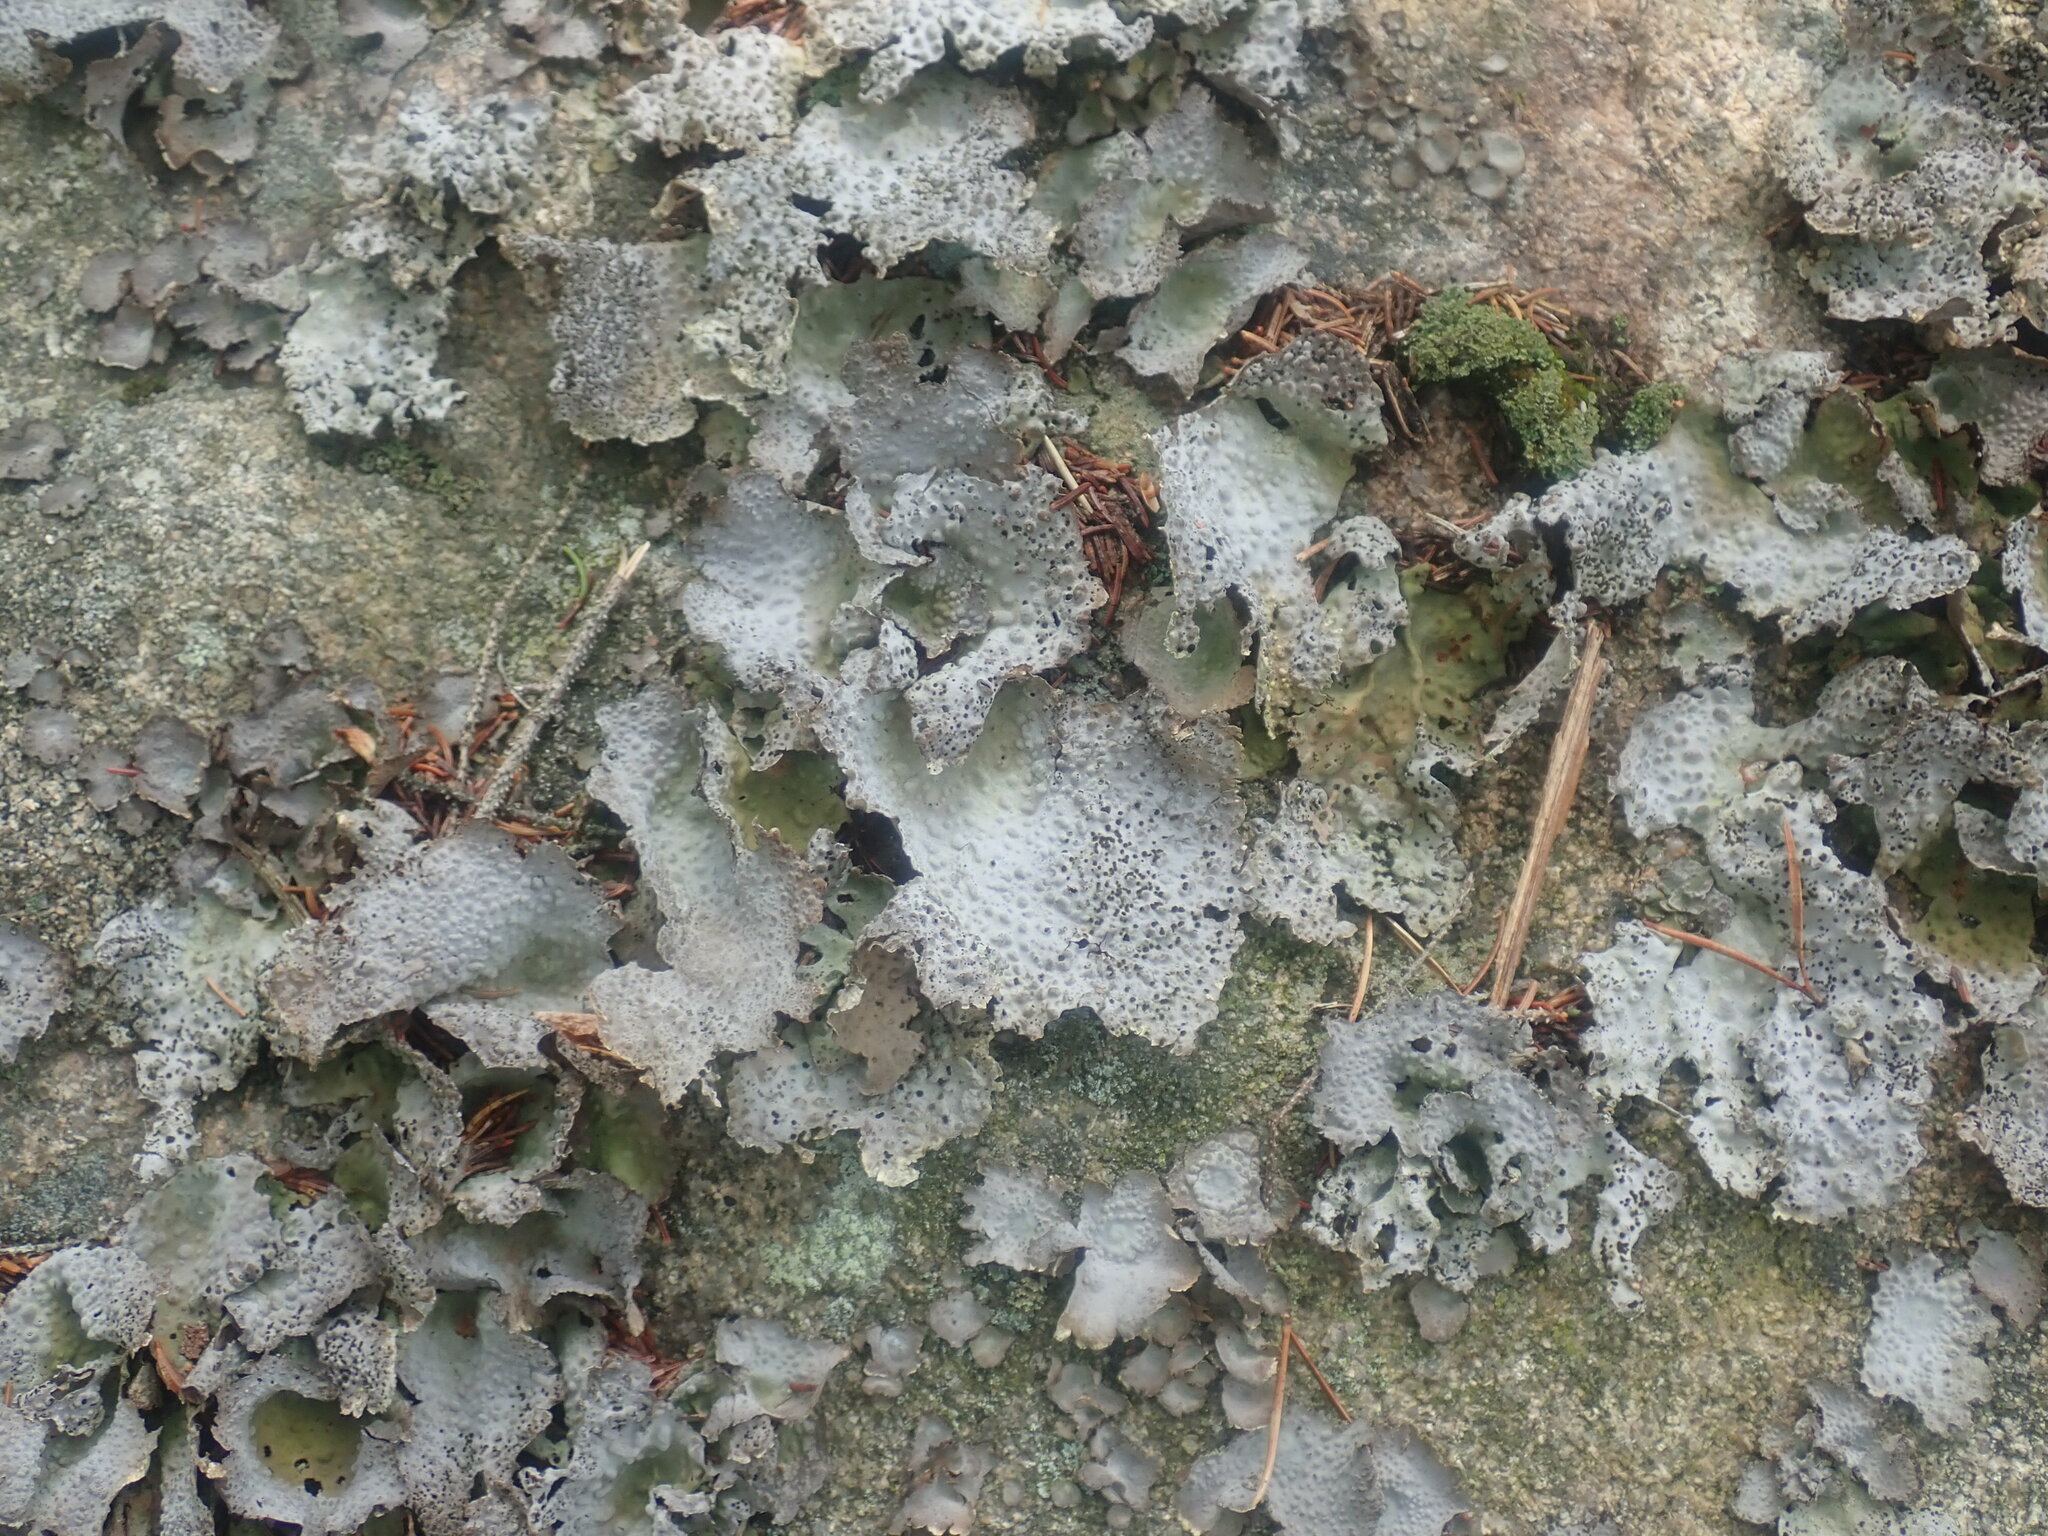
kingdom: Fungi
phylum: Ascomycota
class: Lecanoromycetes
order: Umbilicariales
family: Umbilicariaceae
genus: Lasallia
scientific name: Lasallia papulosa
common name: Common toadskin lichen
